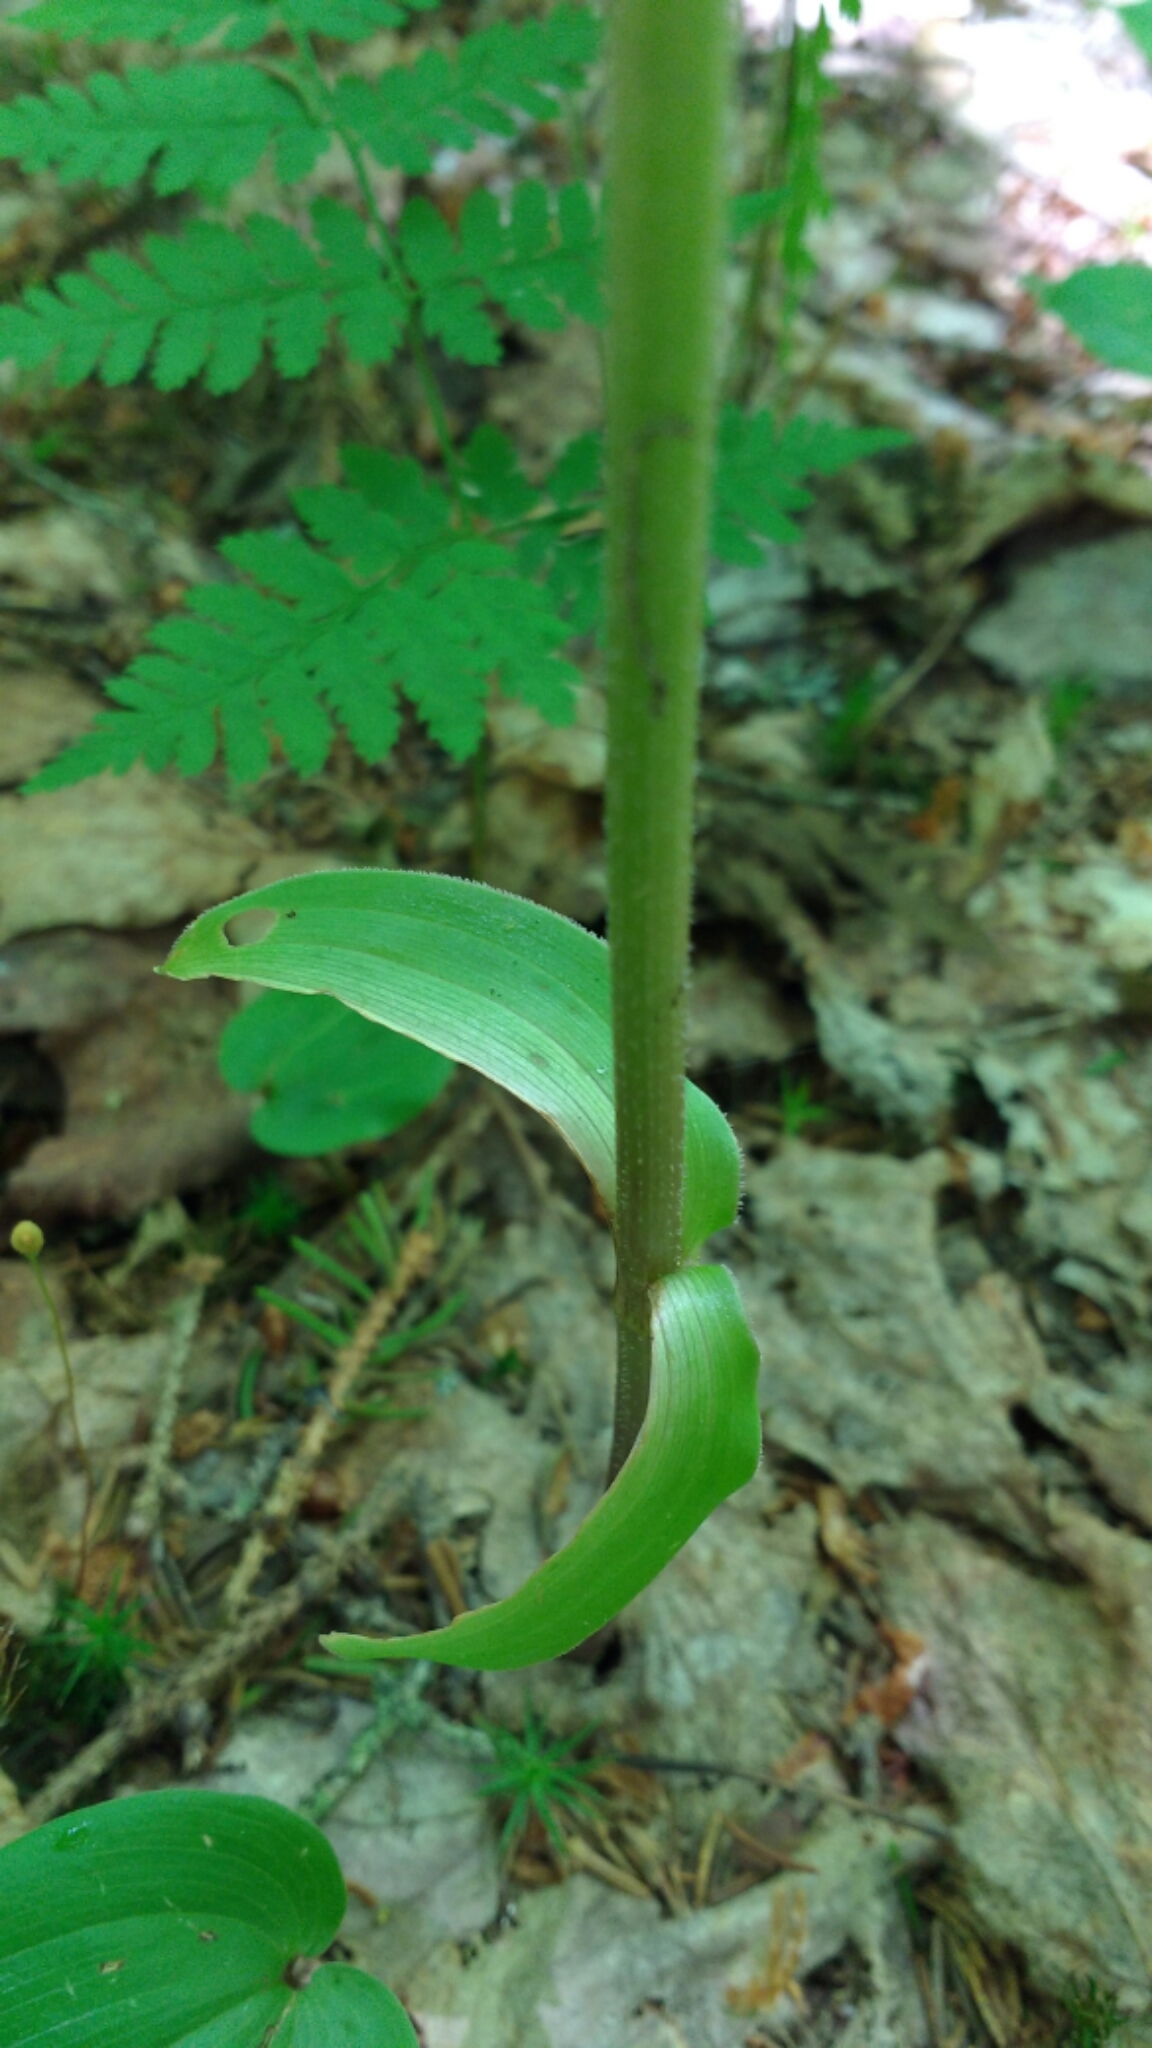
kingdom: Plantae
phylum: Tracheophyta
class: Liliopsida
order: Liliales
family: Liliaceae
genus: Streptopus
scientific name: Streptopus lanceolatus
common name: Rose mandarin
